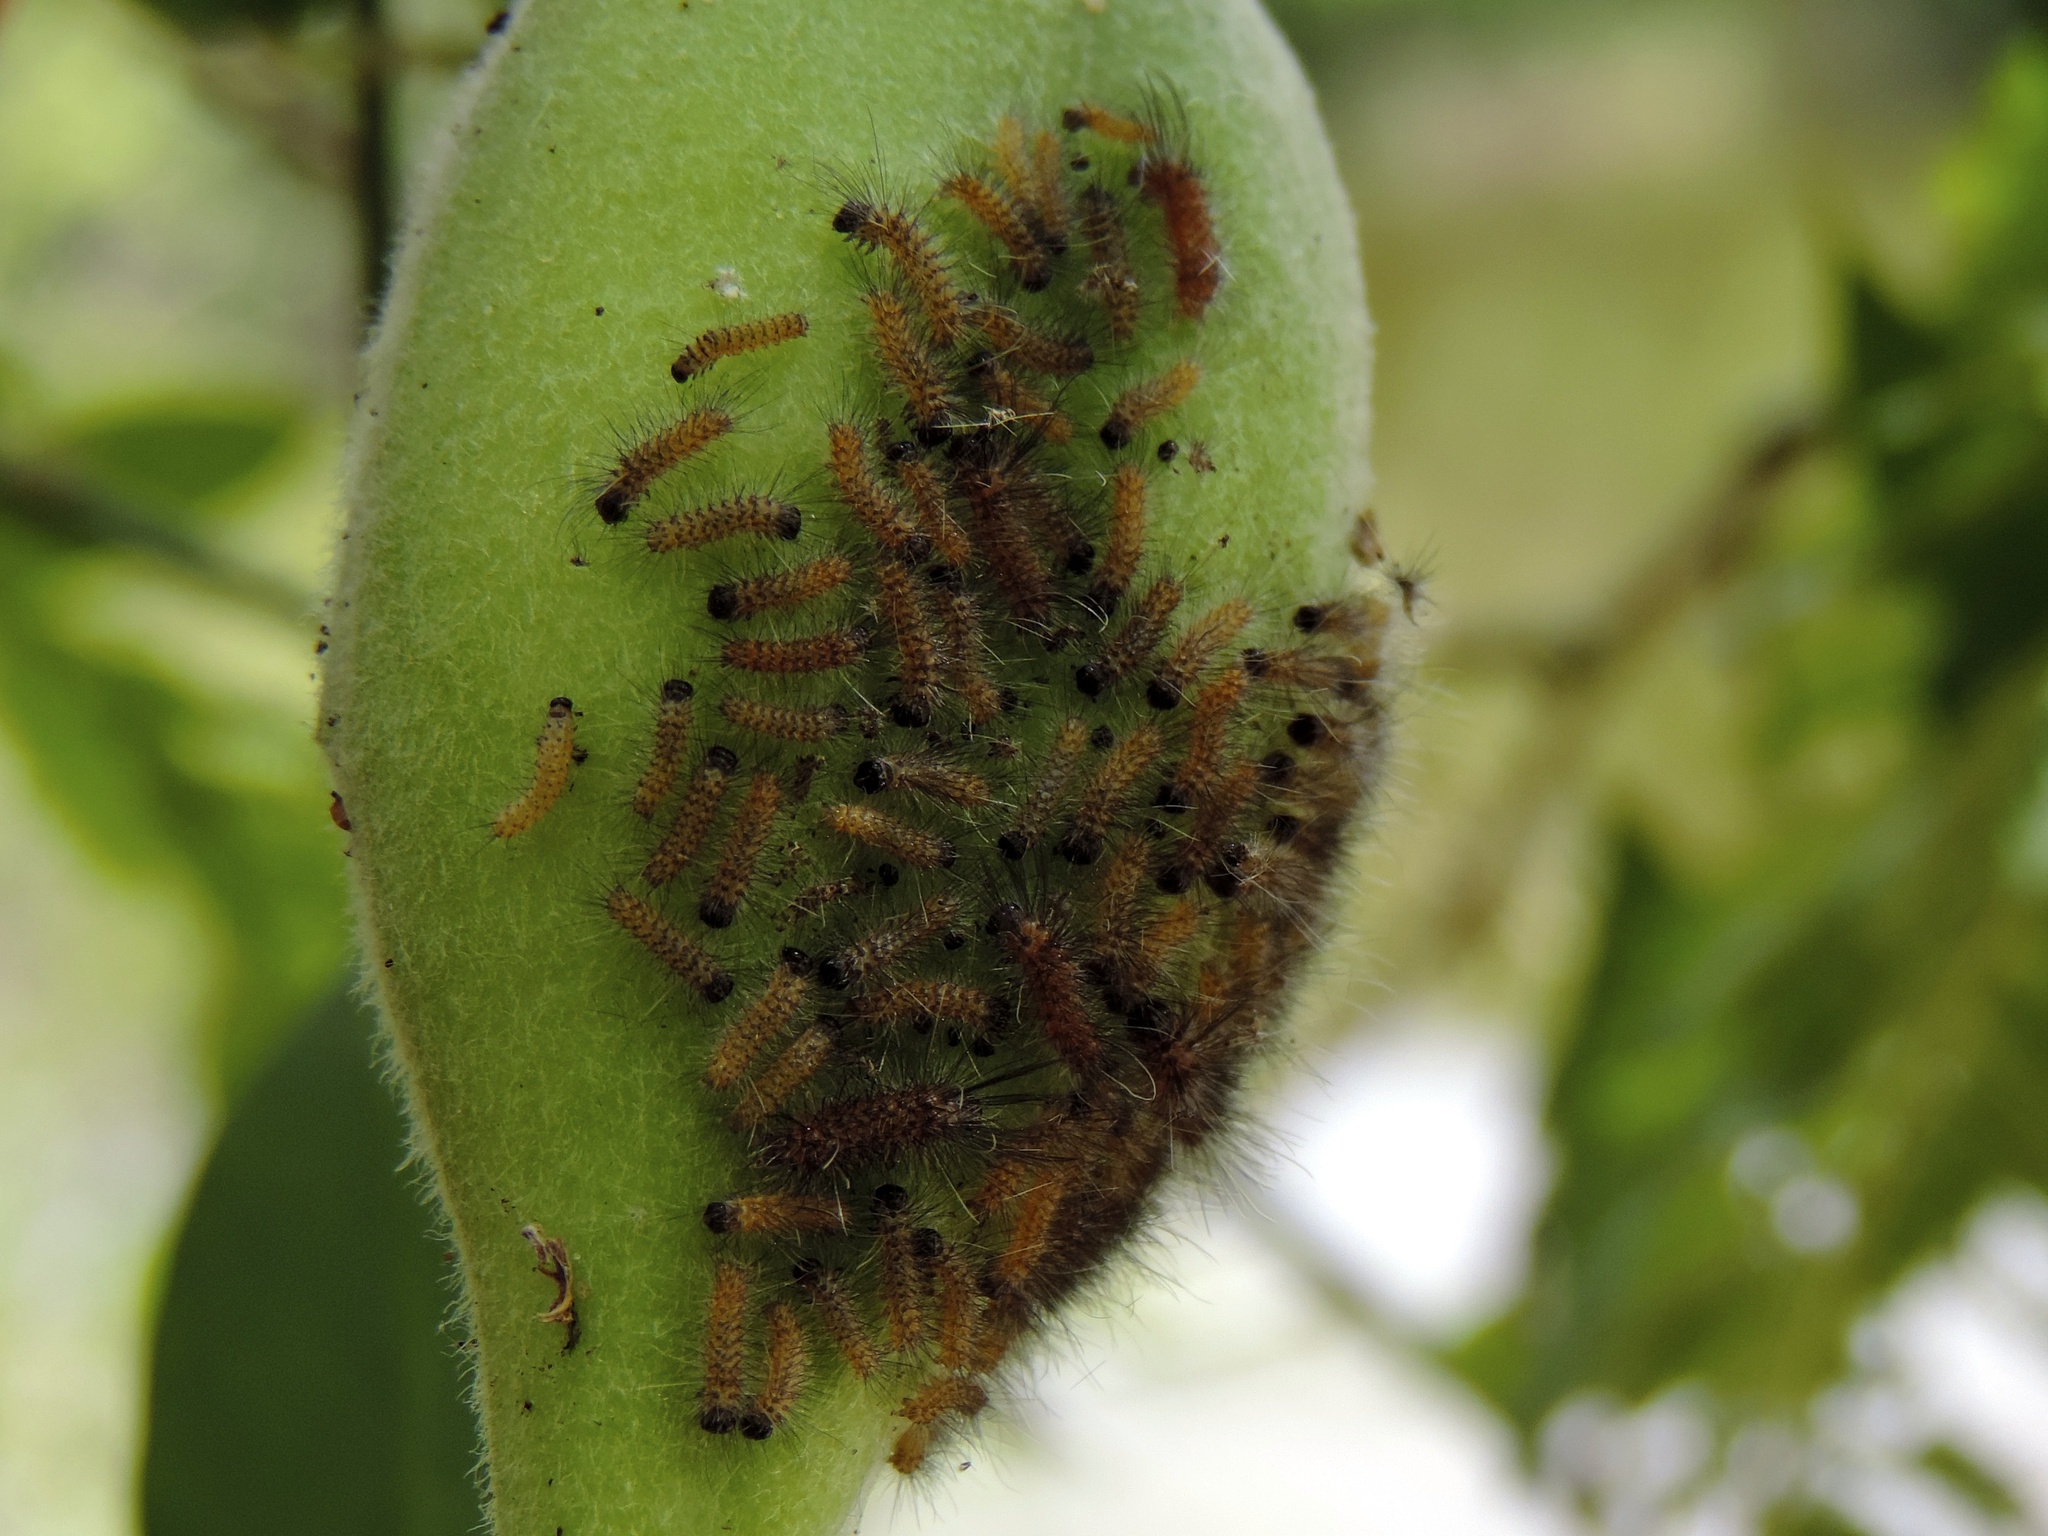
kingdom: Animalia
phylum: Arthropoda
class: Insecta
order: Lepidoptera
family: Erebidae
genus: Euchaetes
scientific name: Euchaetes
